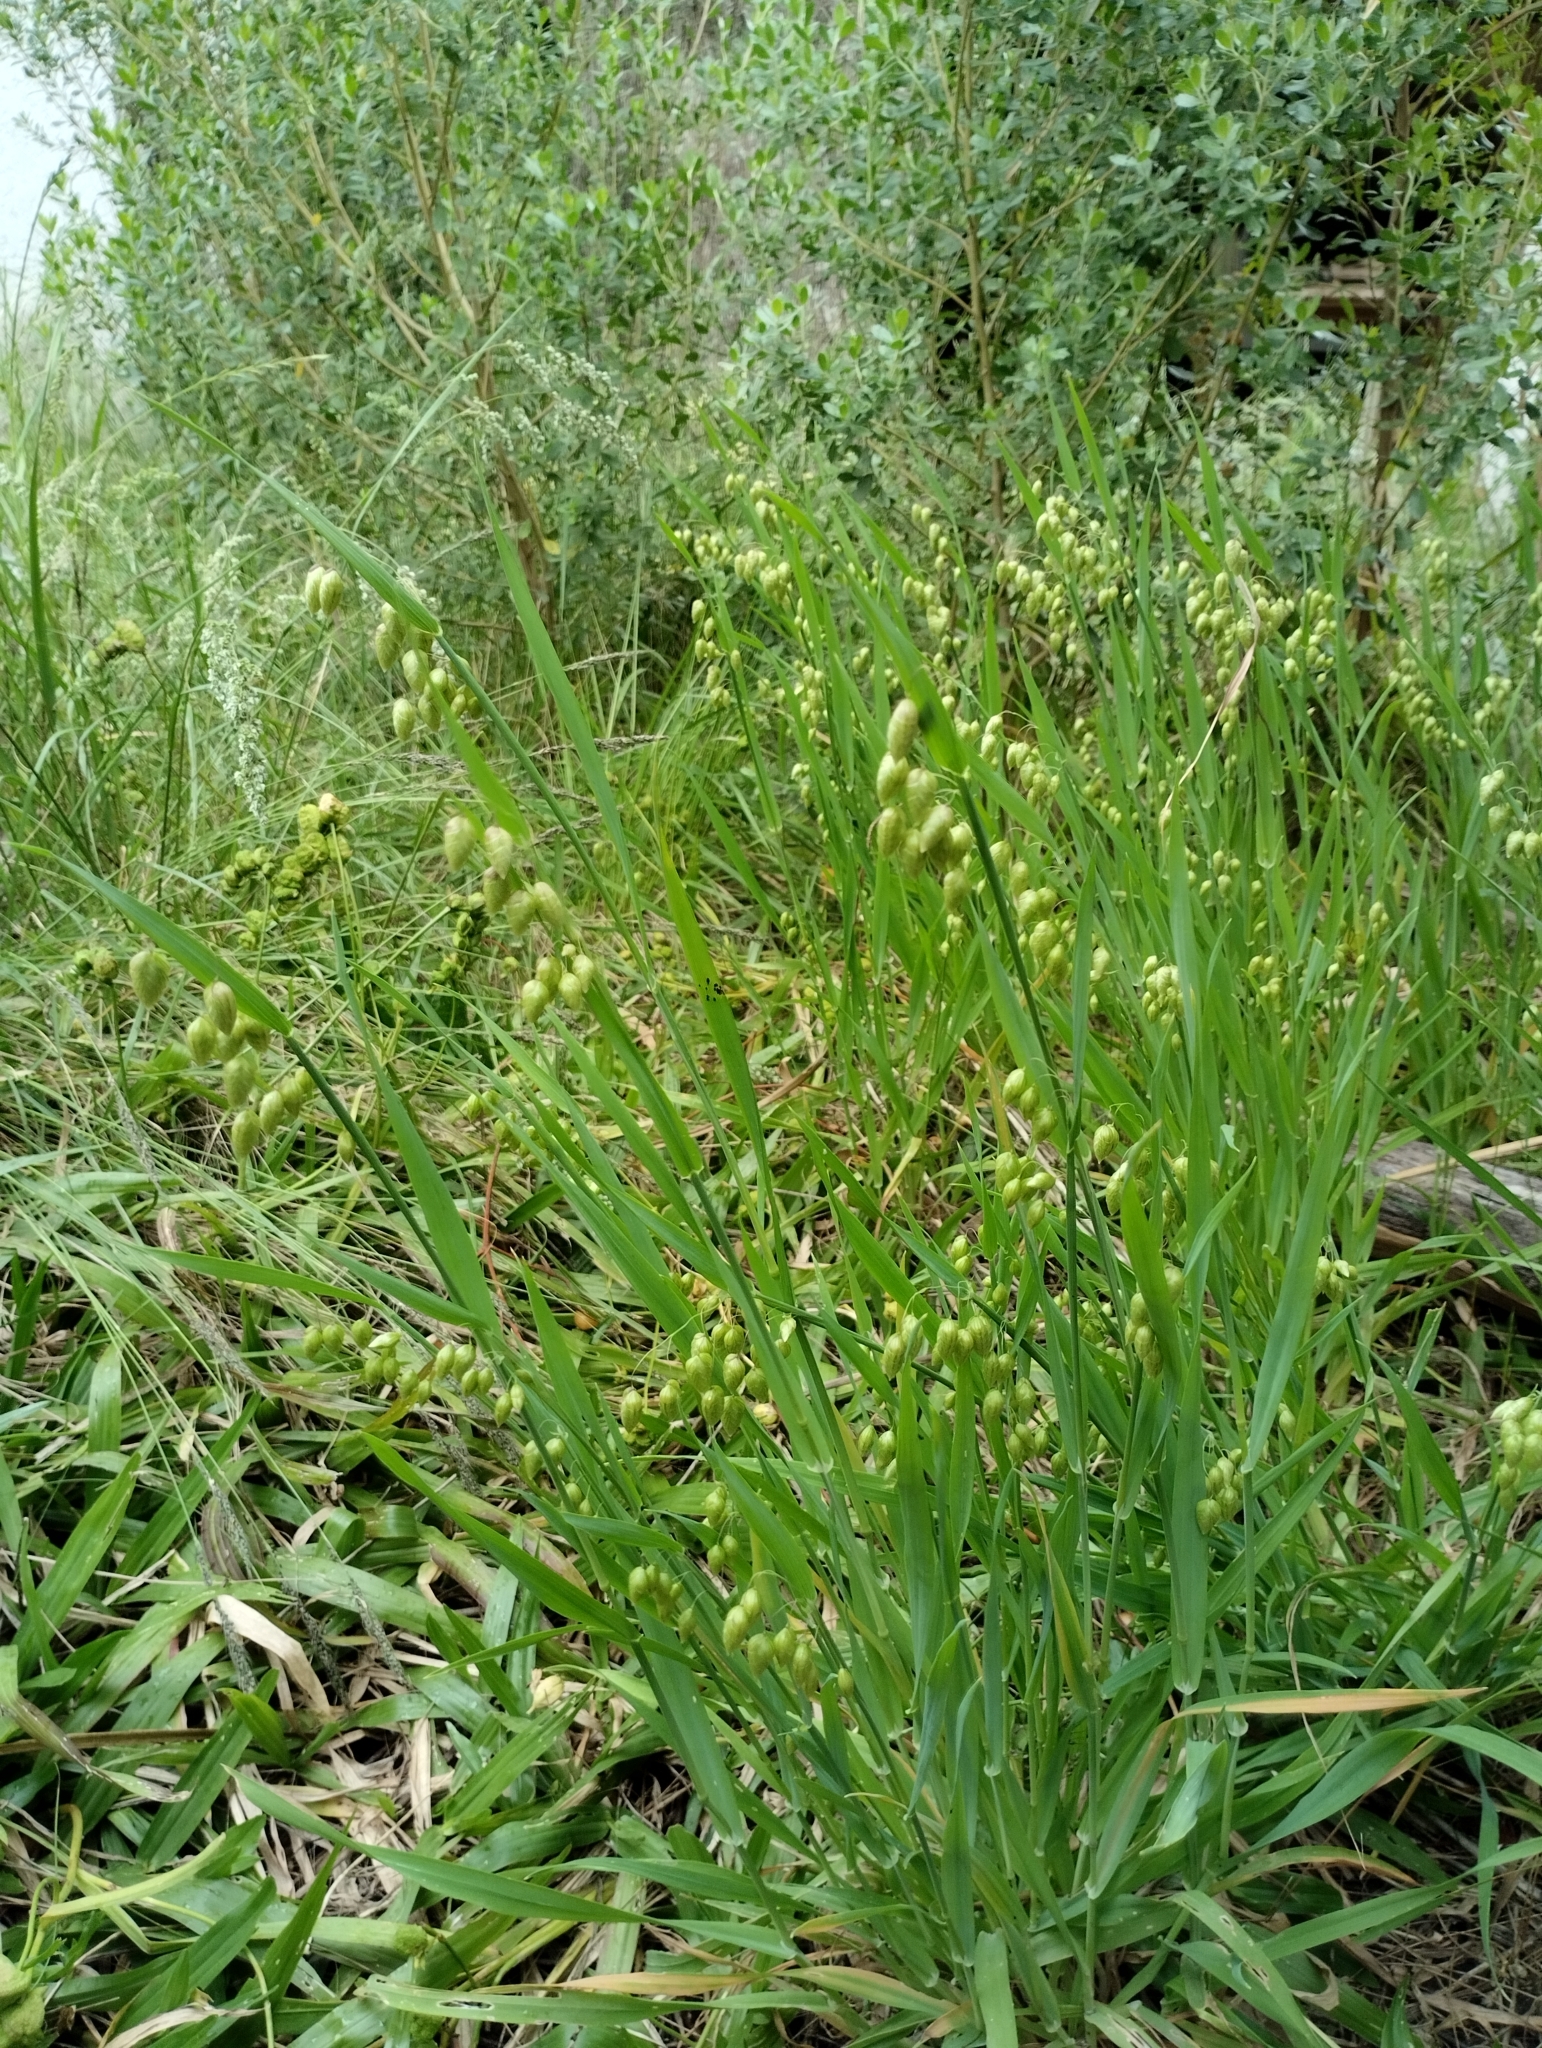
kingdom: Plantae
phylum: Tracheophyta
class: Liliopsida
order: Poales
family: Poaceae
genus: Briza
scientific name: Briza maxima
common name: Big quakinggrass
